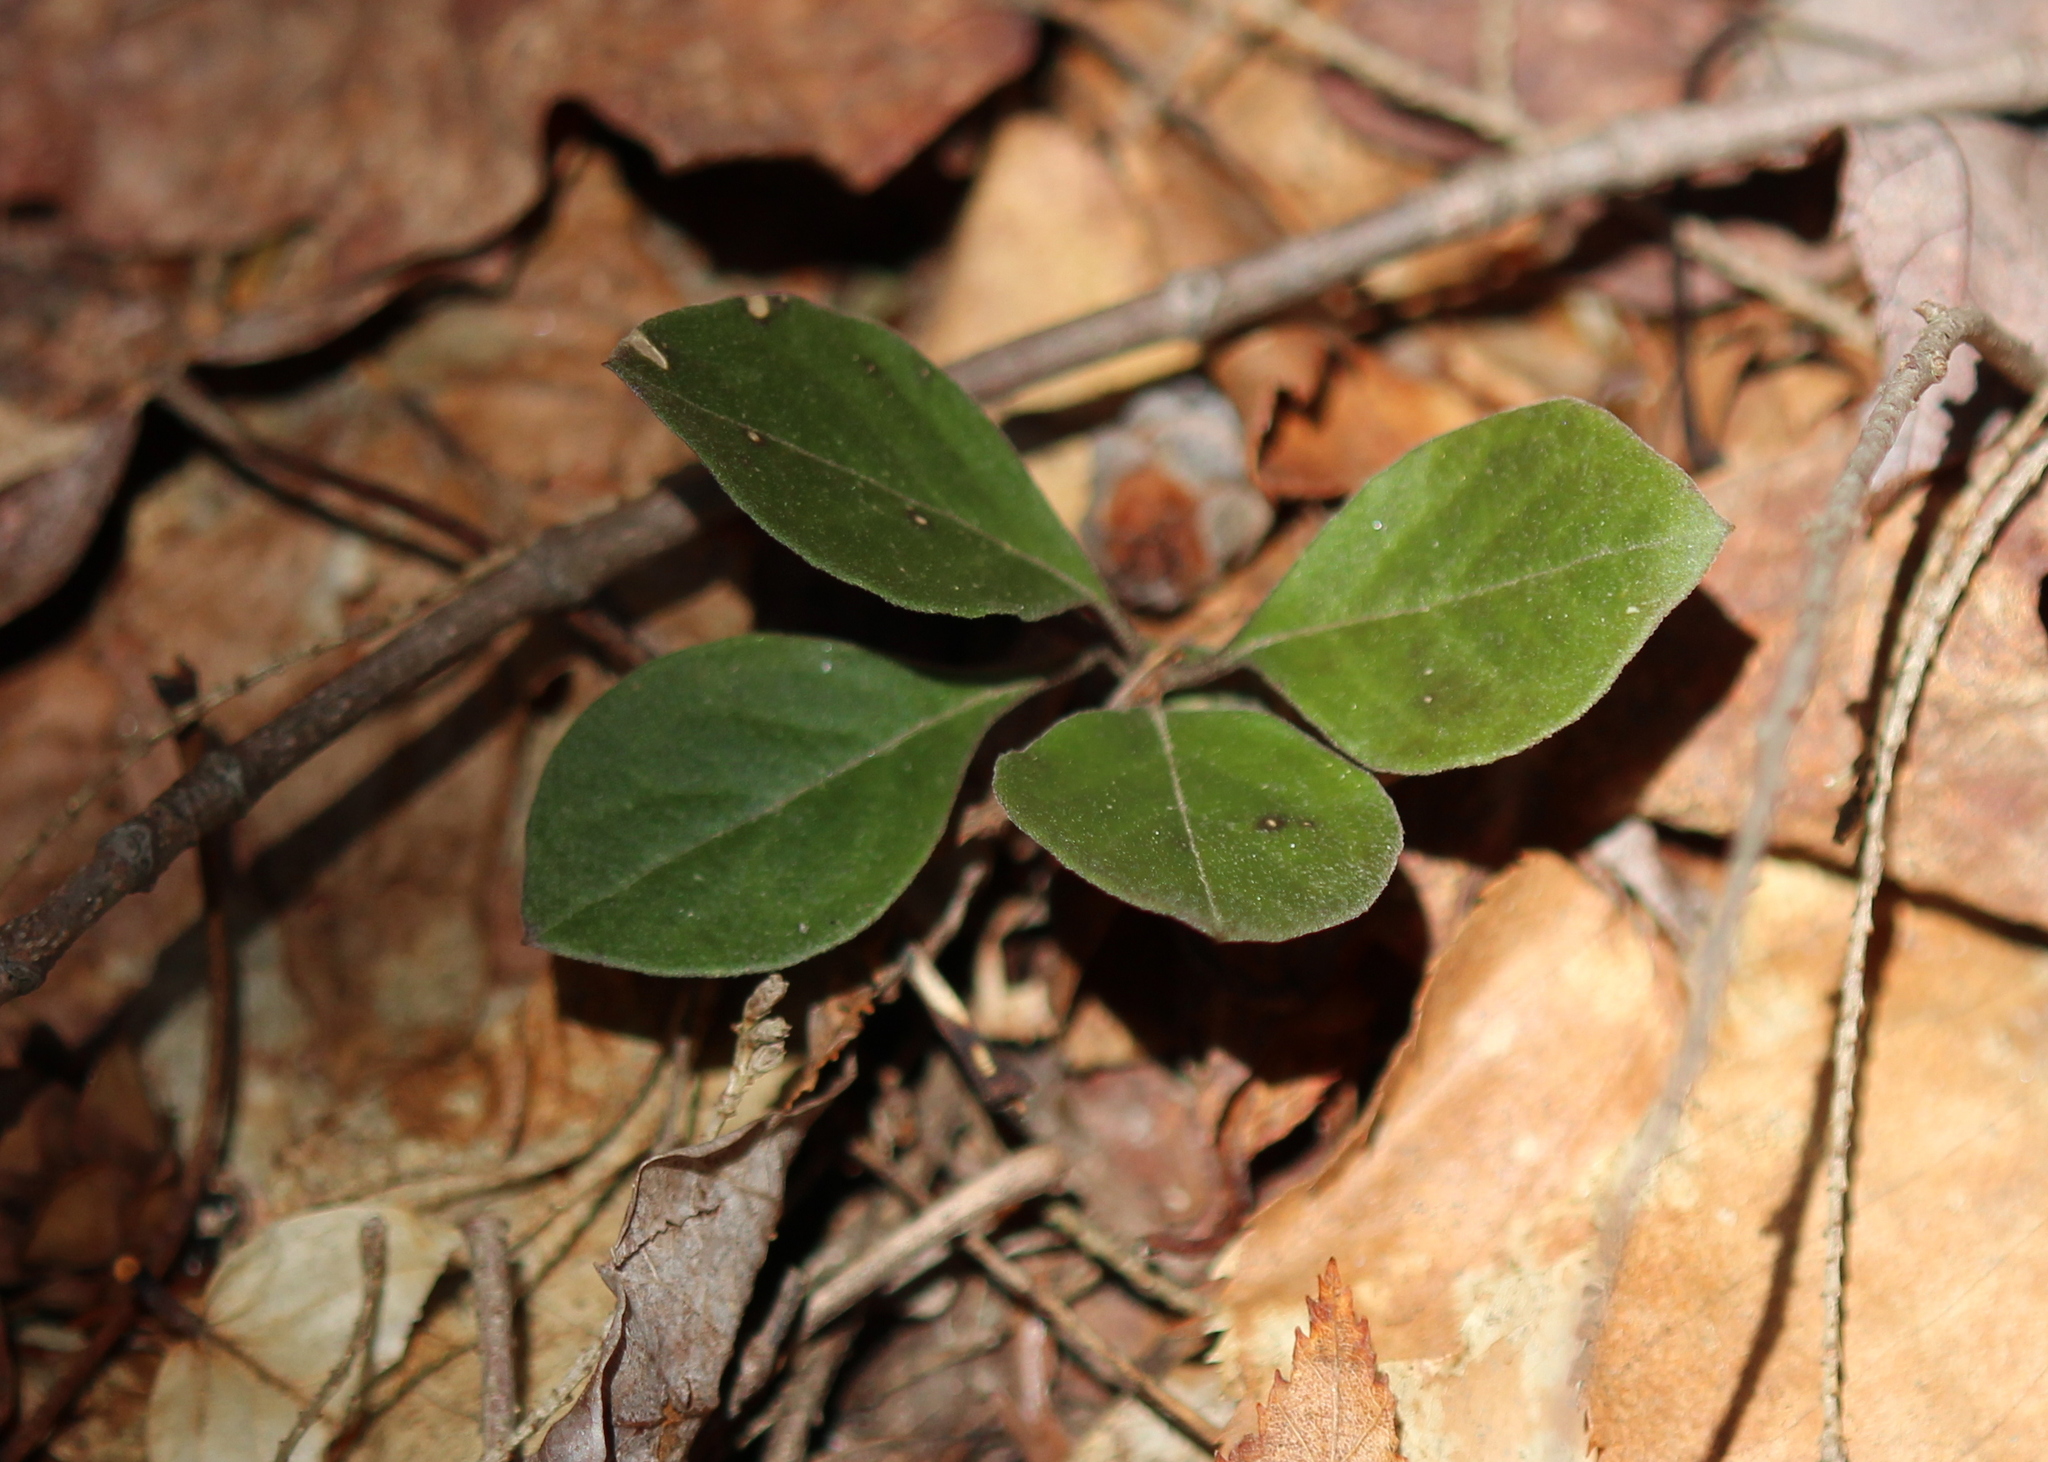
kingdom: Plantae
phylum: Tracheophyta
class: Magnoliopsida
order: Ericales
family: Ericaceae
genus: Gaultheria
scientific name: Gaultheria procumbens
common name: Checkerberry
